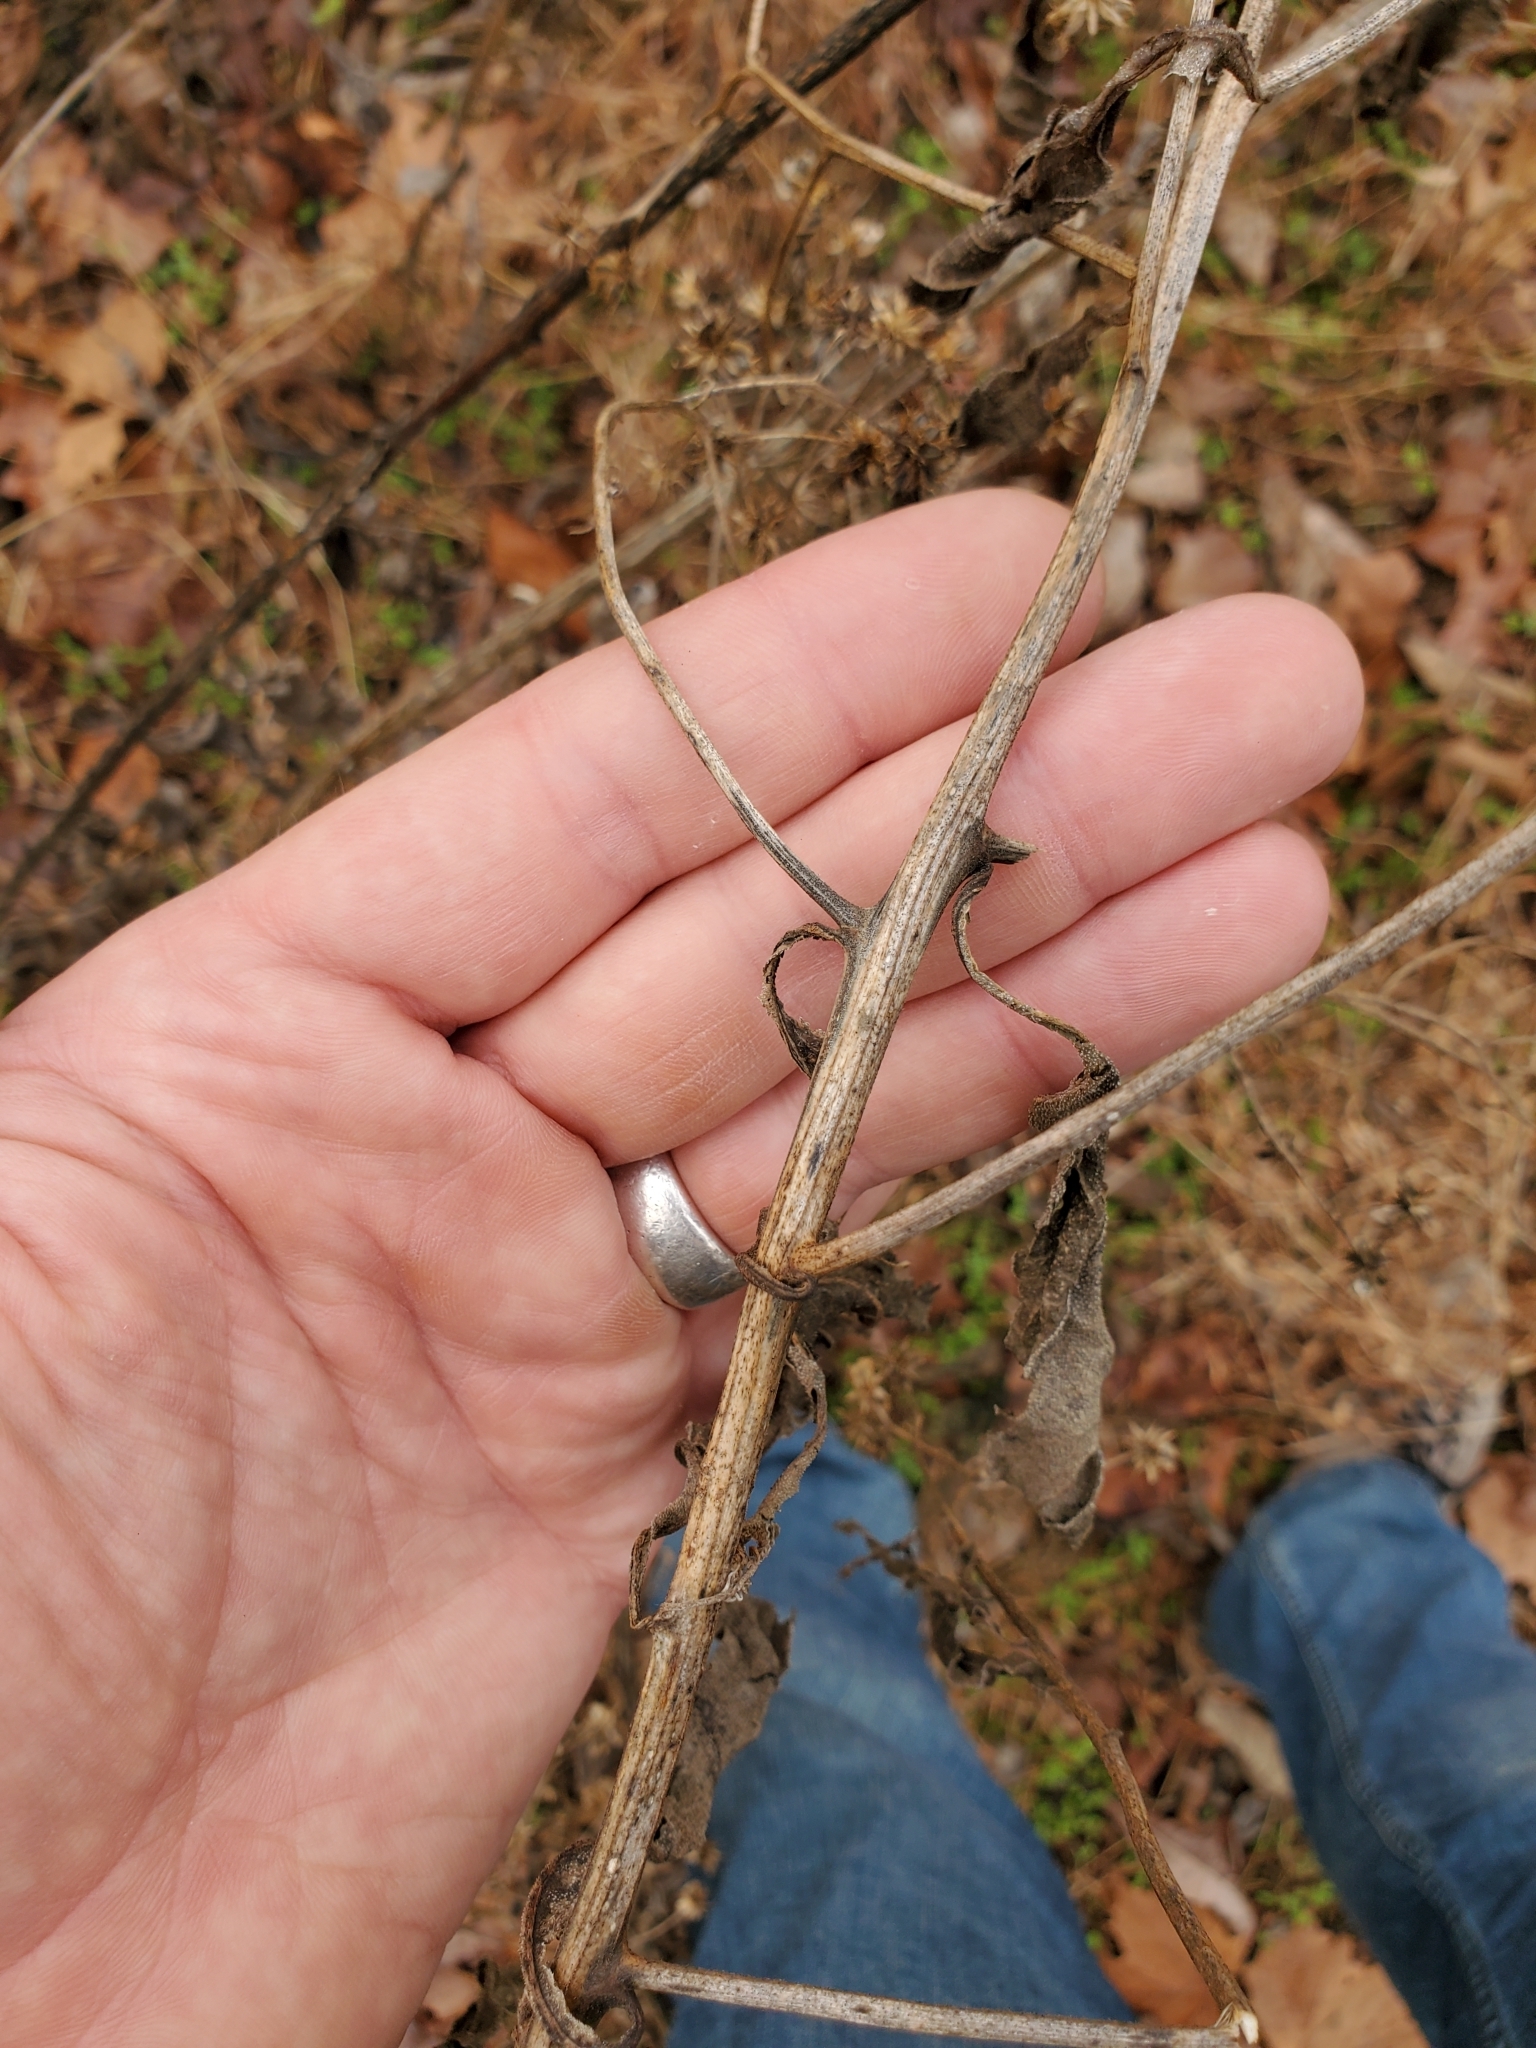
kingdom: Plantae
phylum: Tracheophyta
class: Magnoliopsida
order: Asterales
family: Asteraceae
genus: Verbesina
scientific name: Verbesina alternifolia
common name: Wingstem
